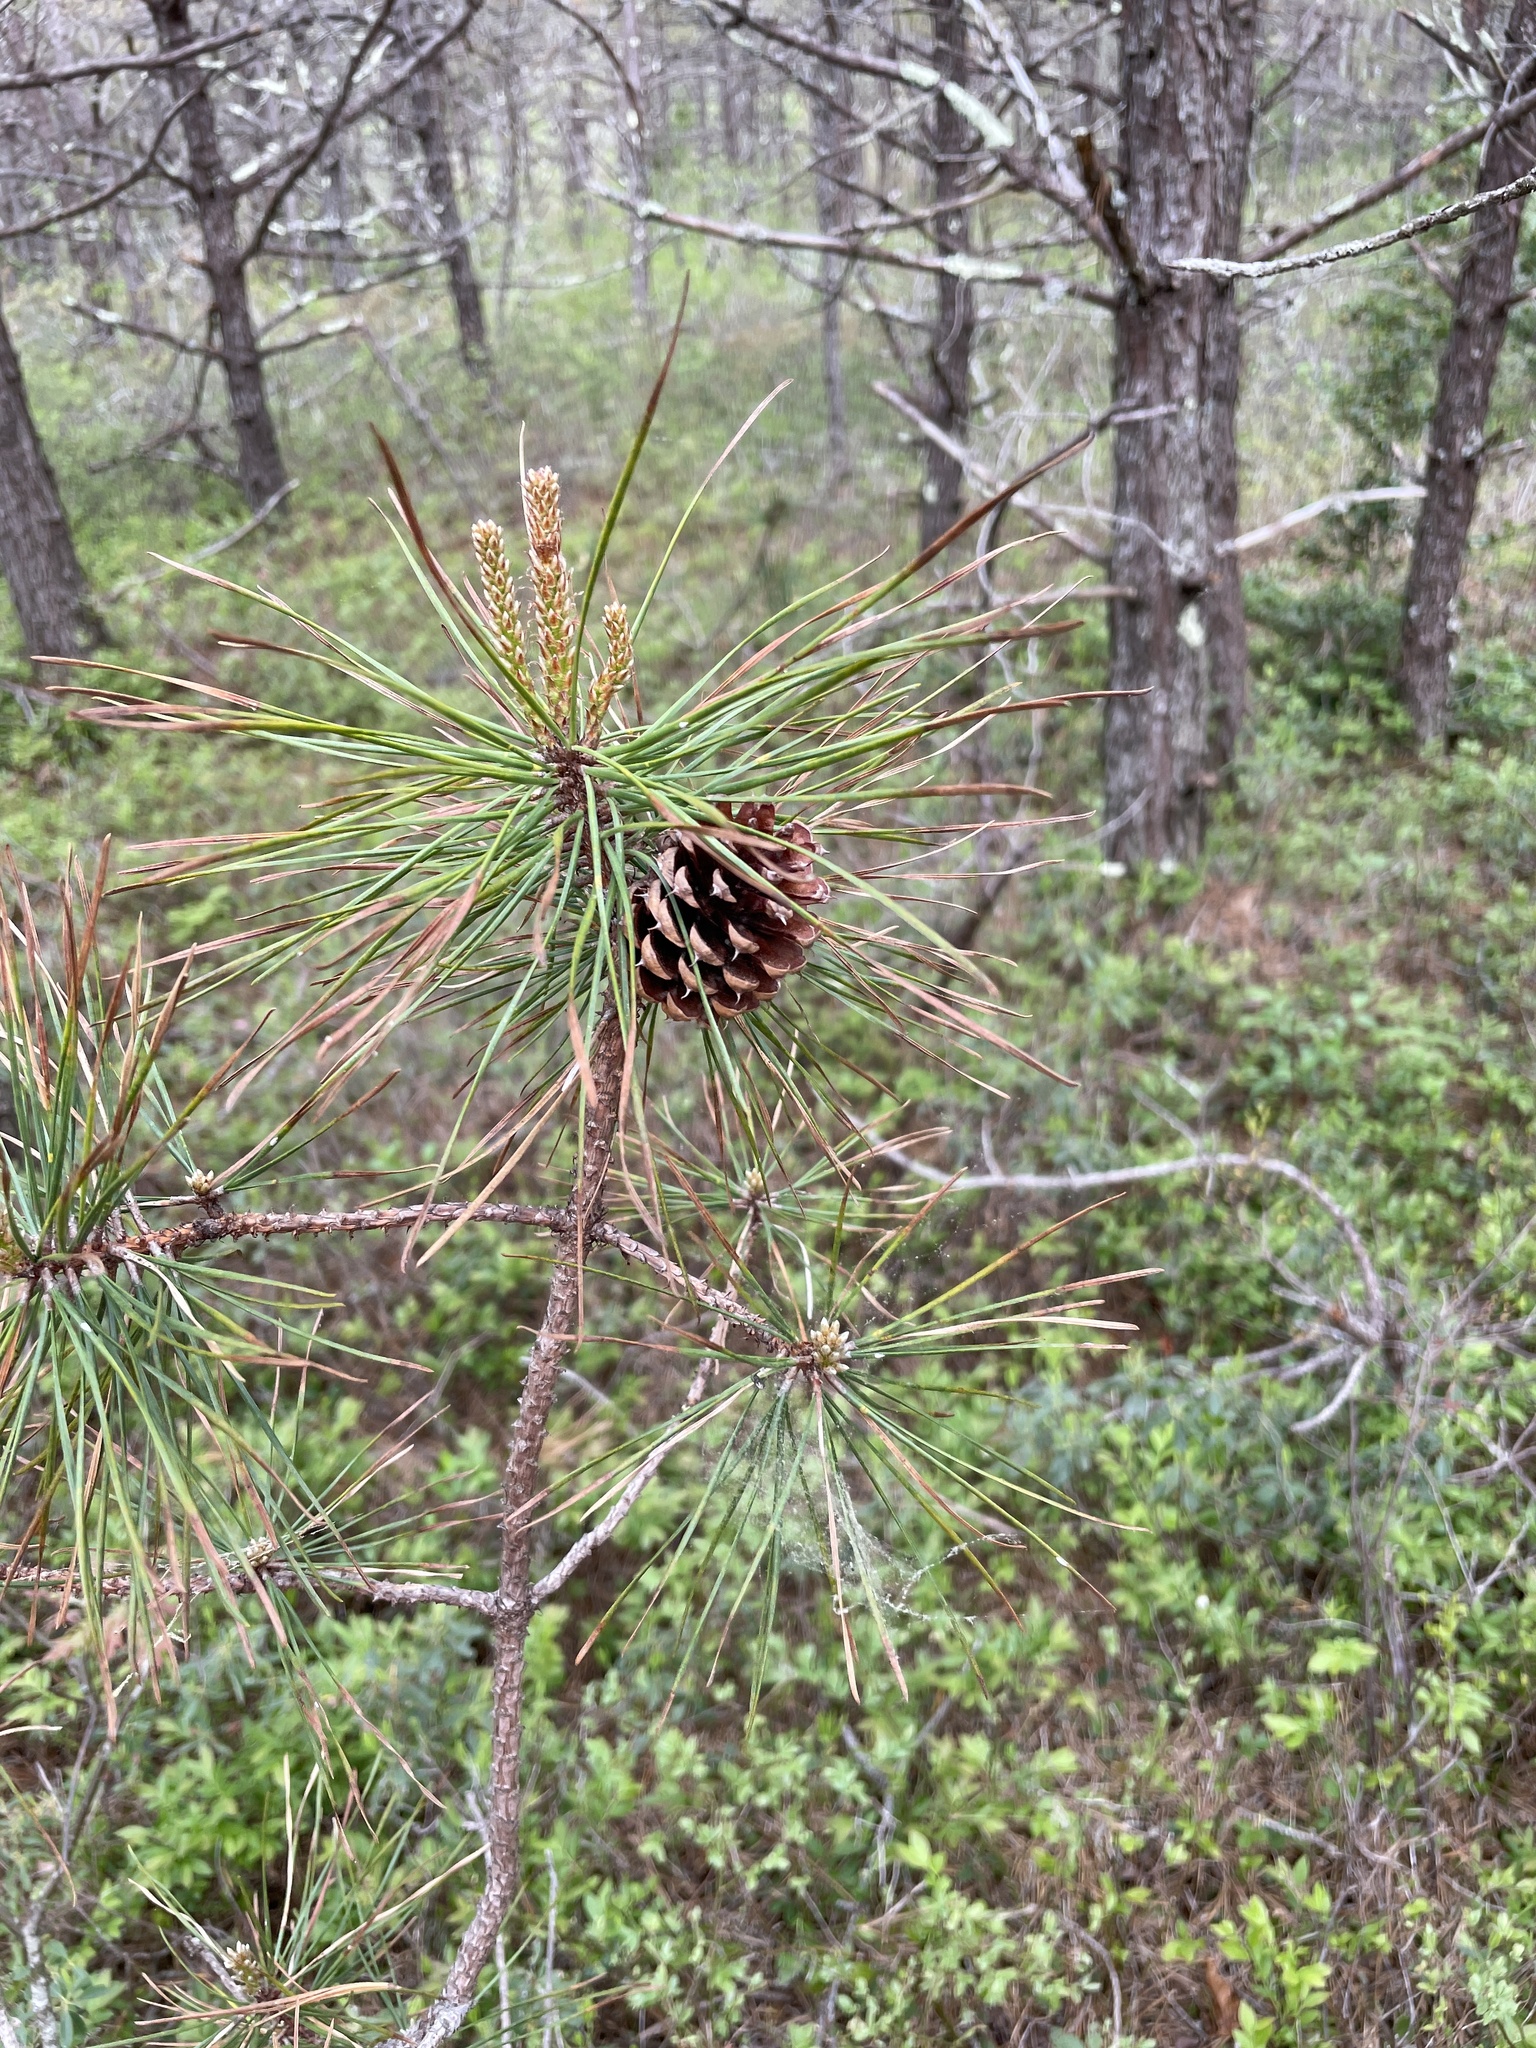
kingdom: Plantae
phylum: Tracheophyta
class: Pinopsida
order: Pinales
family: Pinaceae
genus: Pinus
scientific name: Pinus rigida
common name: Pitch pine
